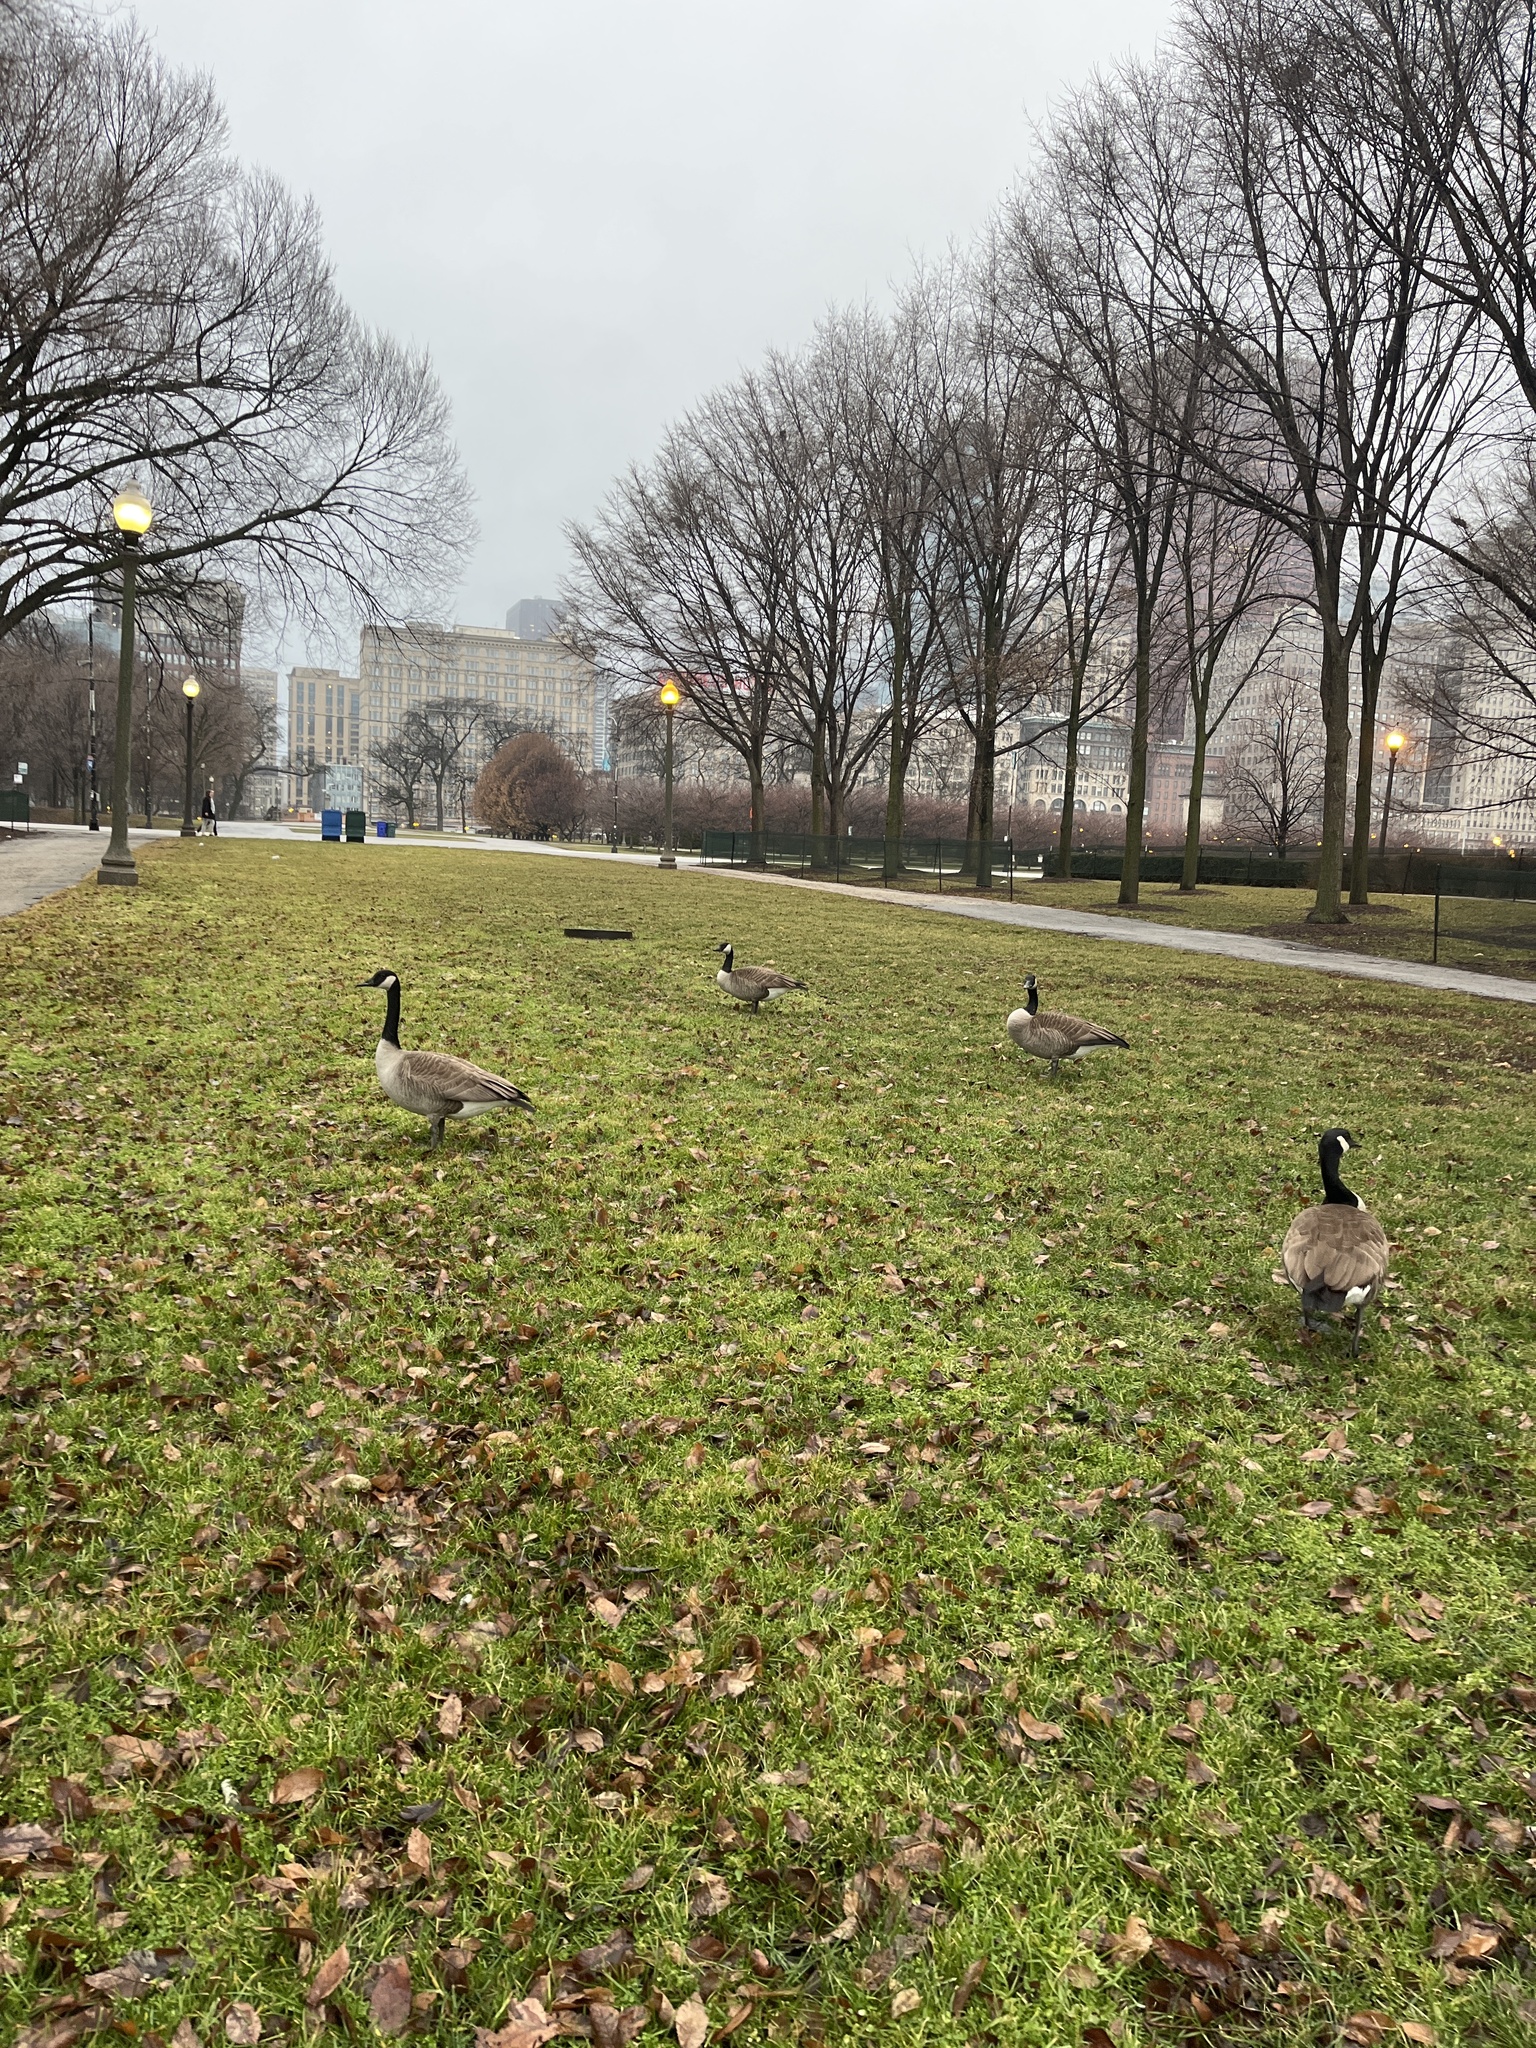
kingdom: Animalia
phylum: Chordata
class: Aves
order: Anseriformes
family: Anatidae
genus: Branta
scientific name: Branta canadensis
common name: Canada goose
